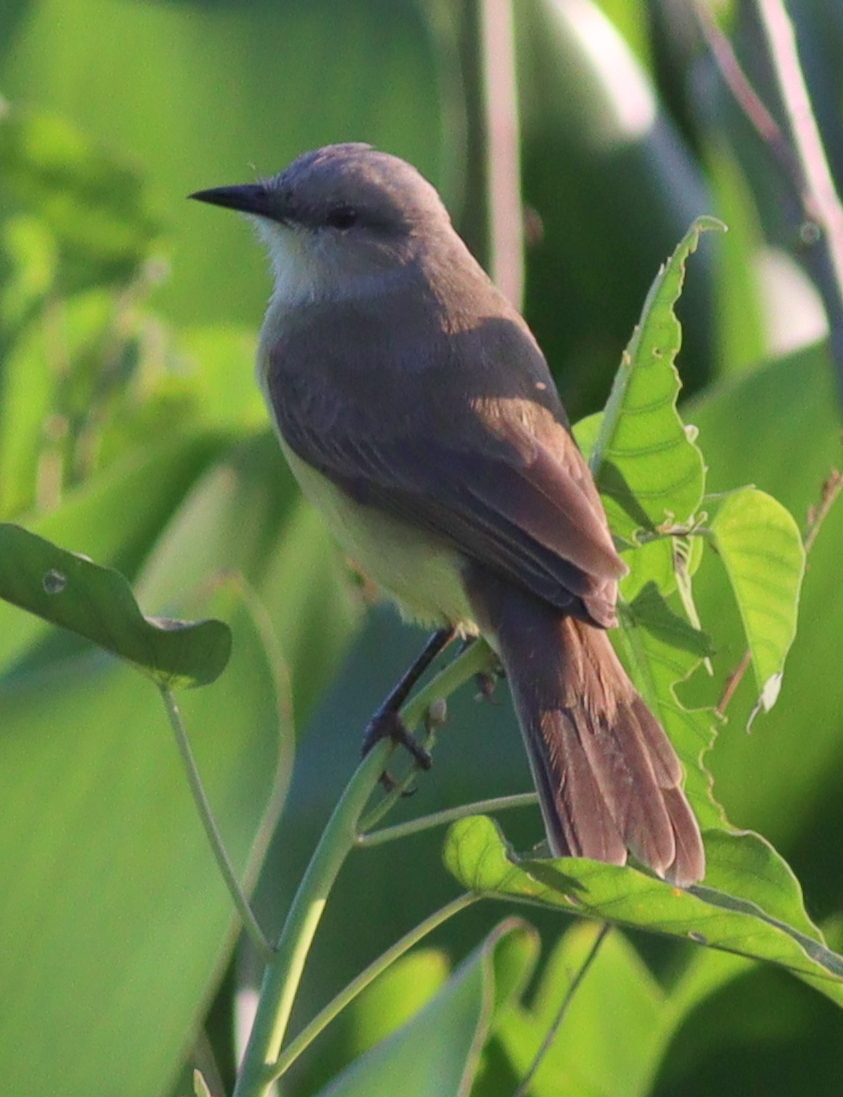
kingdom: Animalia
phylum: Chordata
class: Aves
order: Passeriformes
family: Tyrannidae
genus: Machetornis
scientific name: Machetornis rixosa
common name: Cattle tyrant
